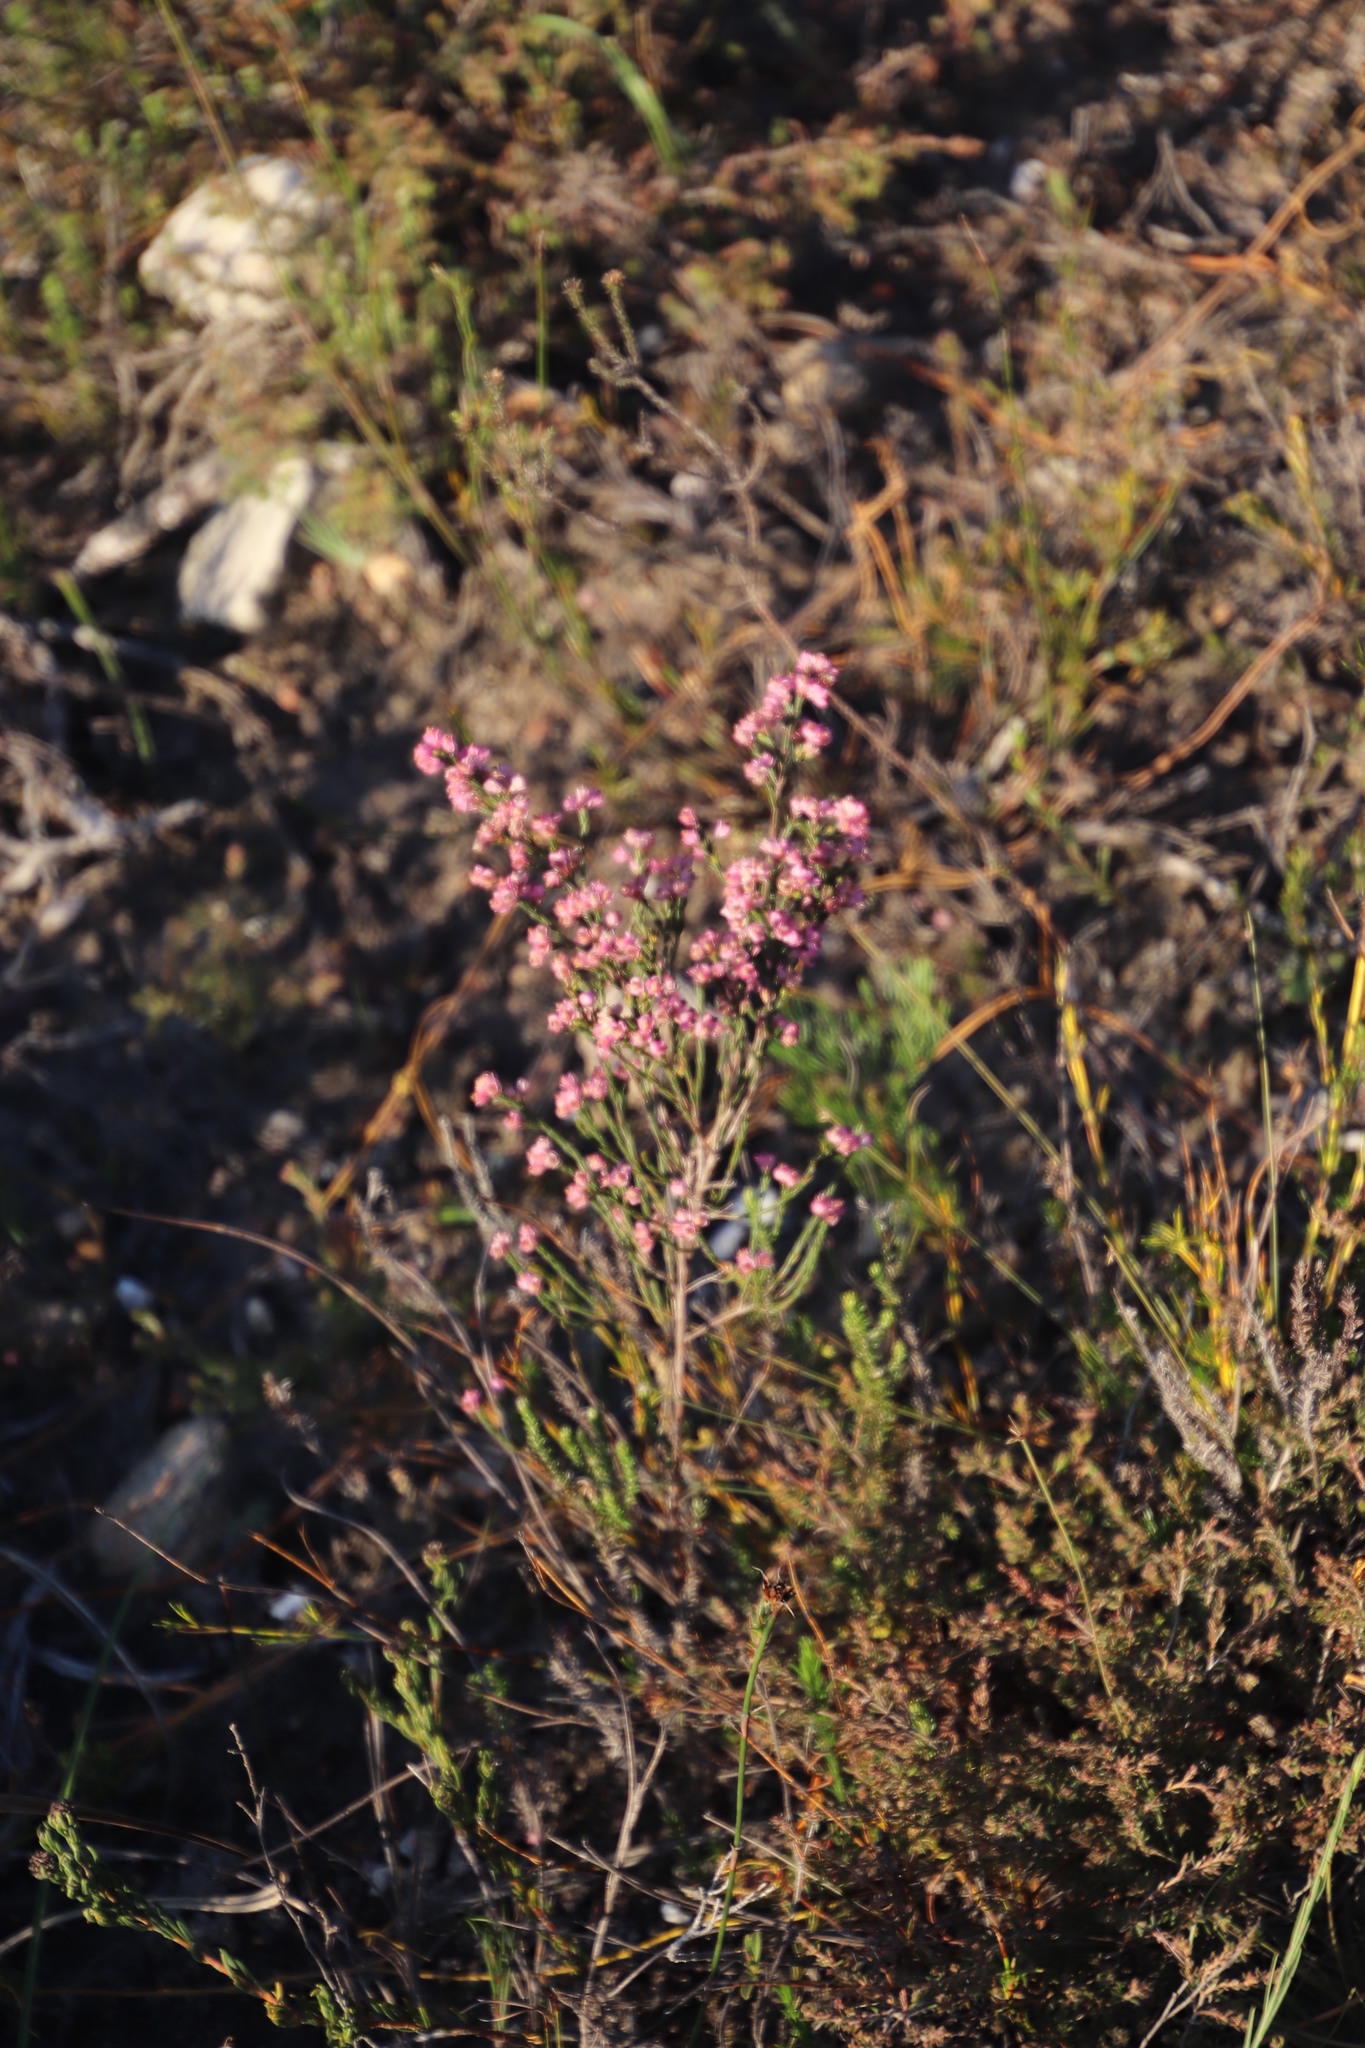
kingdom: Plantae
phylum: Tracheophyta
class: Magnoliopsida
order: Ericales
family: Ericaceae
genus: Erica
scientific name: Erica corifolia
